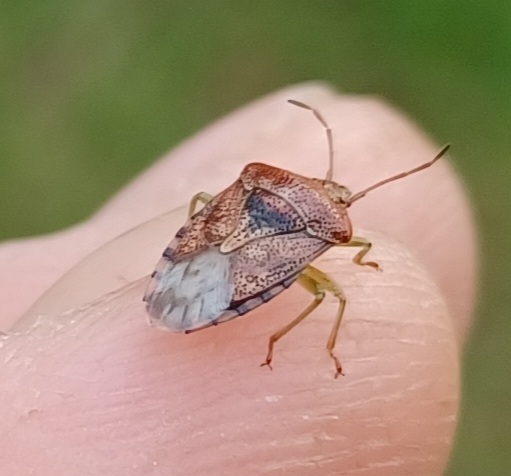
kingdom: Animalia
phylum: Arthropoda
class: Insecta
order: Hemiptera
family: Acanthosomatidae
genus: Elasmucha
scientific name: Elasmucha grisea
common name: Parent bug
